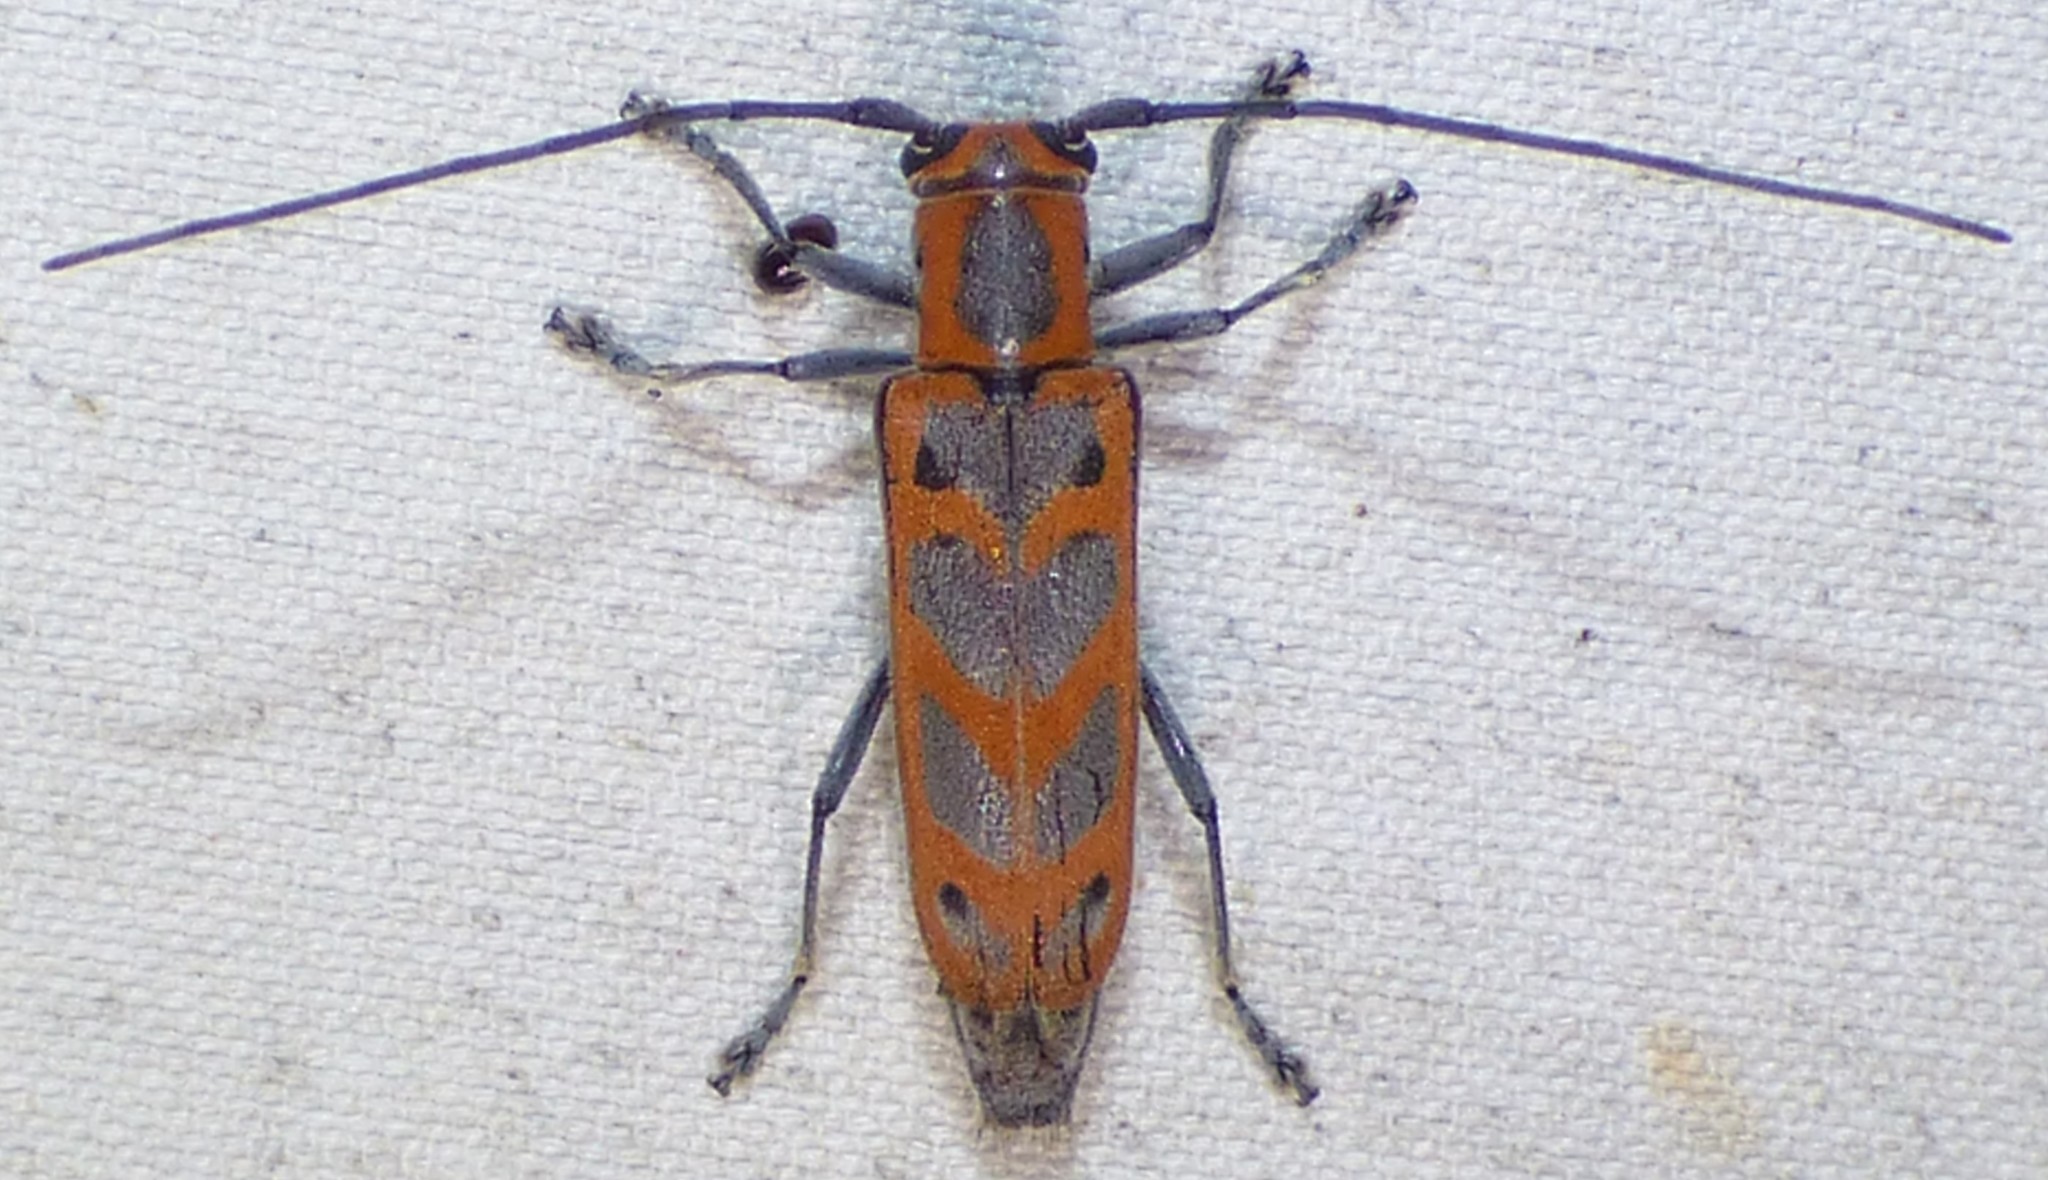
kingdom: Animalia
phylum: Arthropoda
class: Insecta
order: Coleoptera
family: Cerambycidae
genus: Saperda
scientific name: Saperda tridentata
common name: Elm borer
